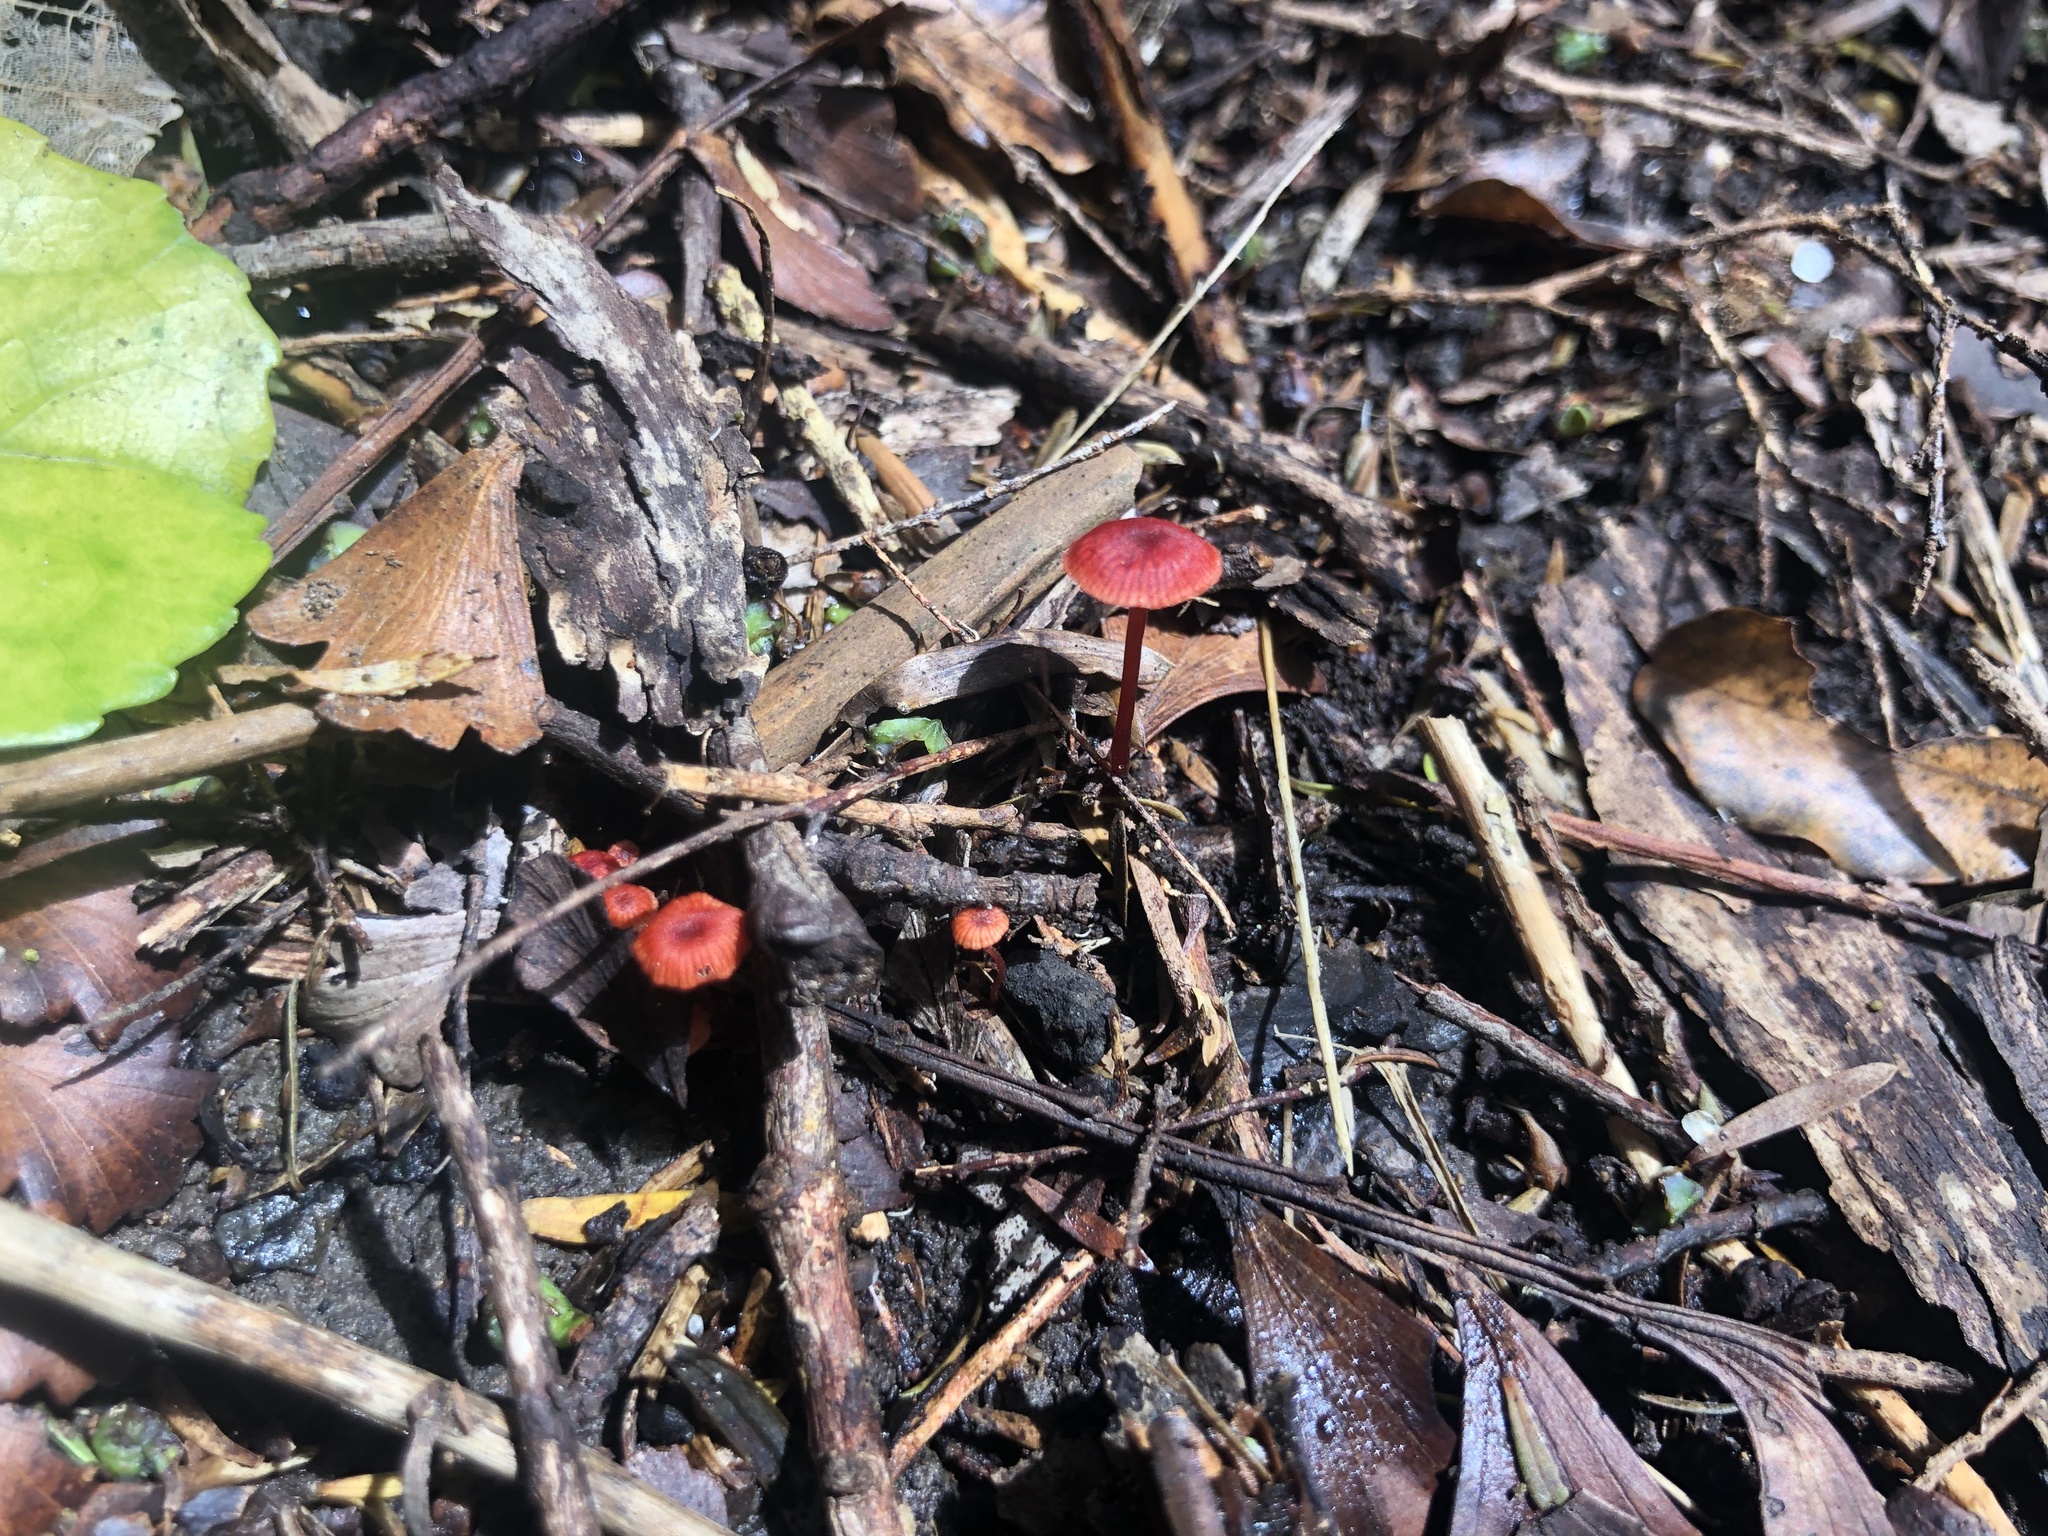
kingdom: Fungi
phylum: Basidiomycota
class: Agaricomycetes
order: Agaricales
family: Mycenaceae
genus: Cruentomycena
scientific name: Cruentomycena viscidocruenta
